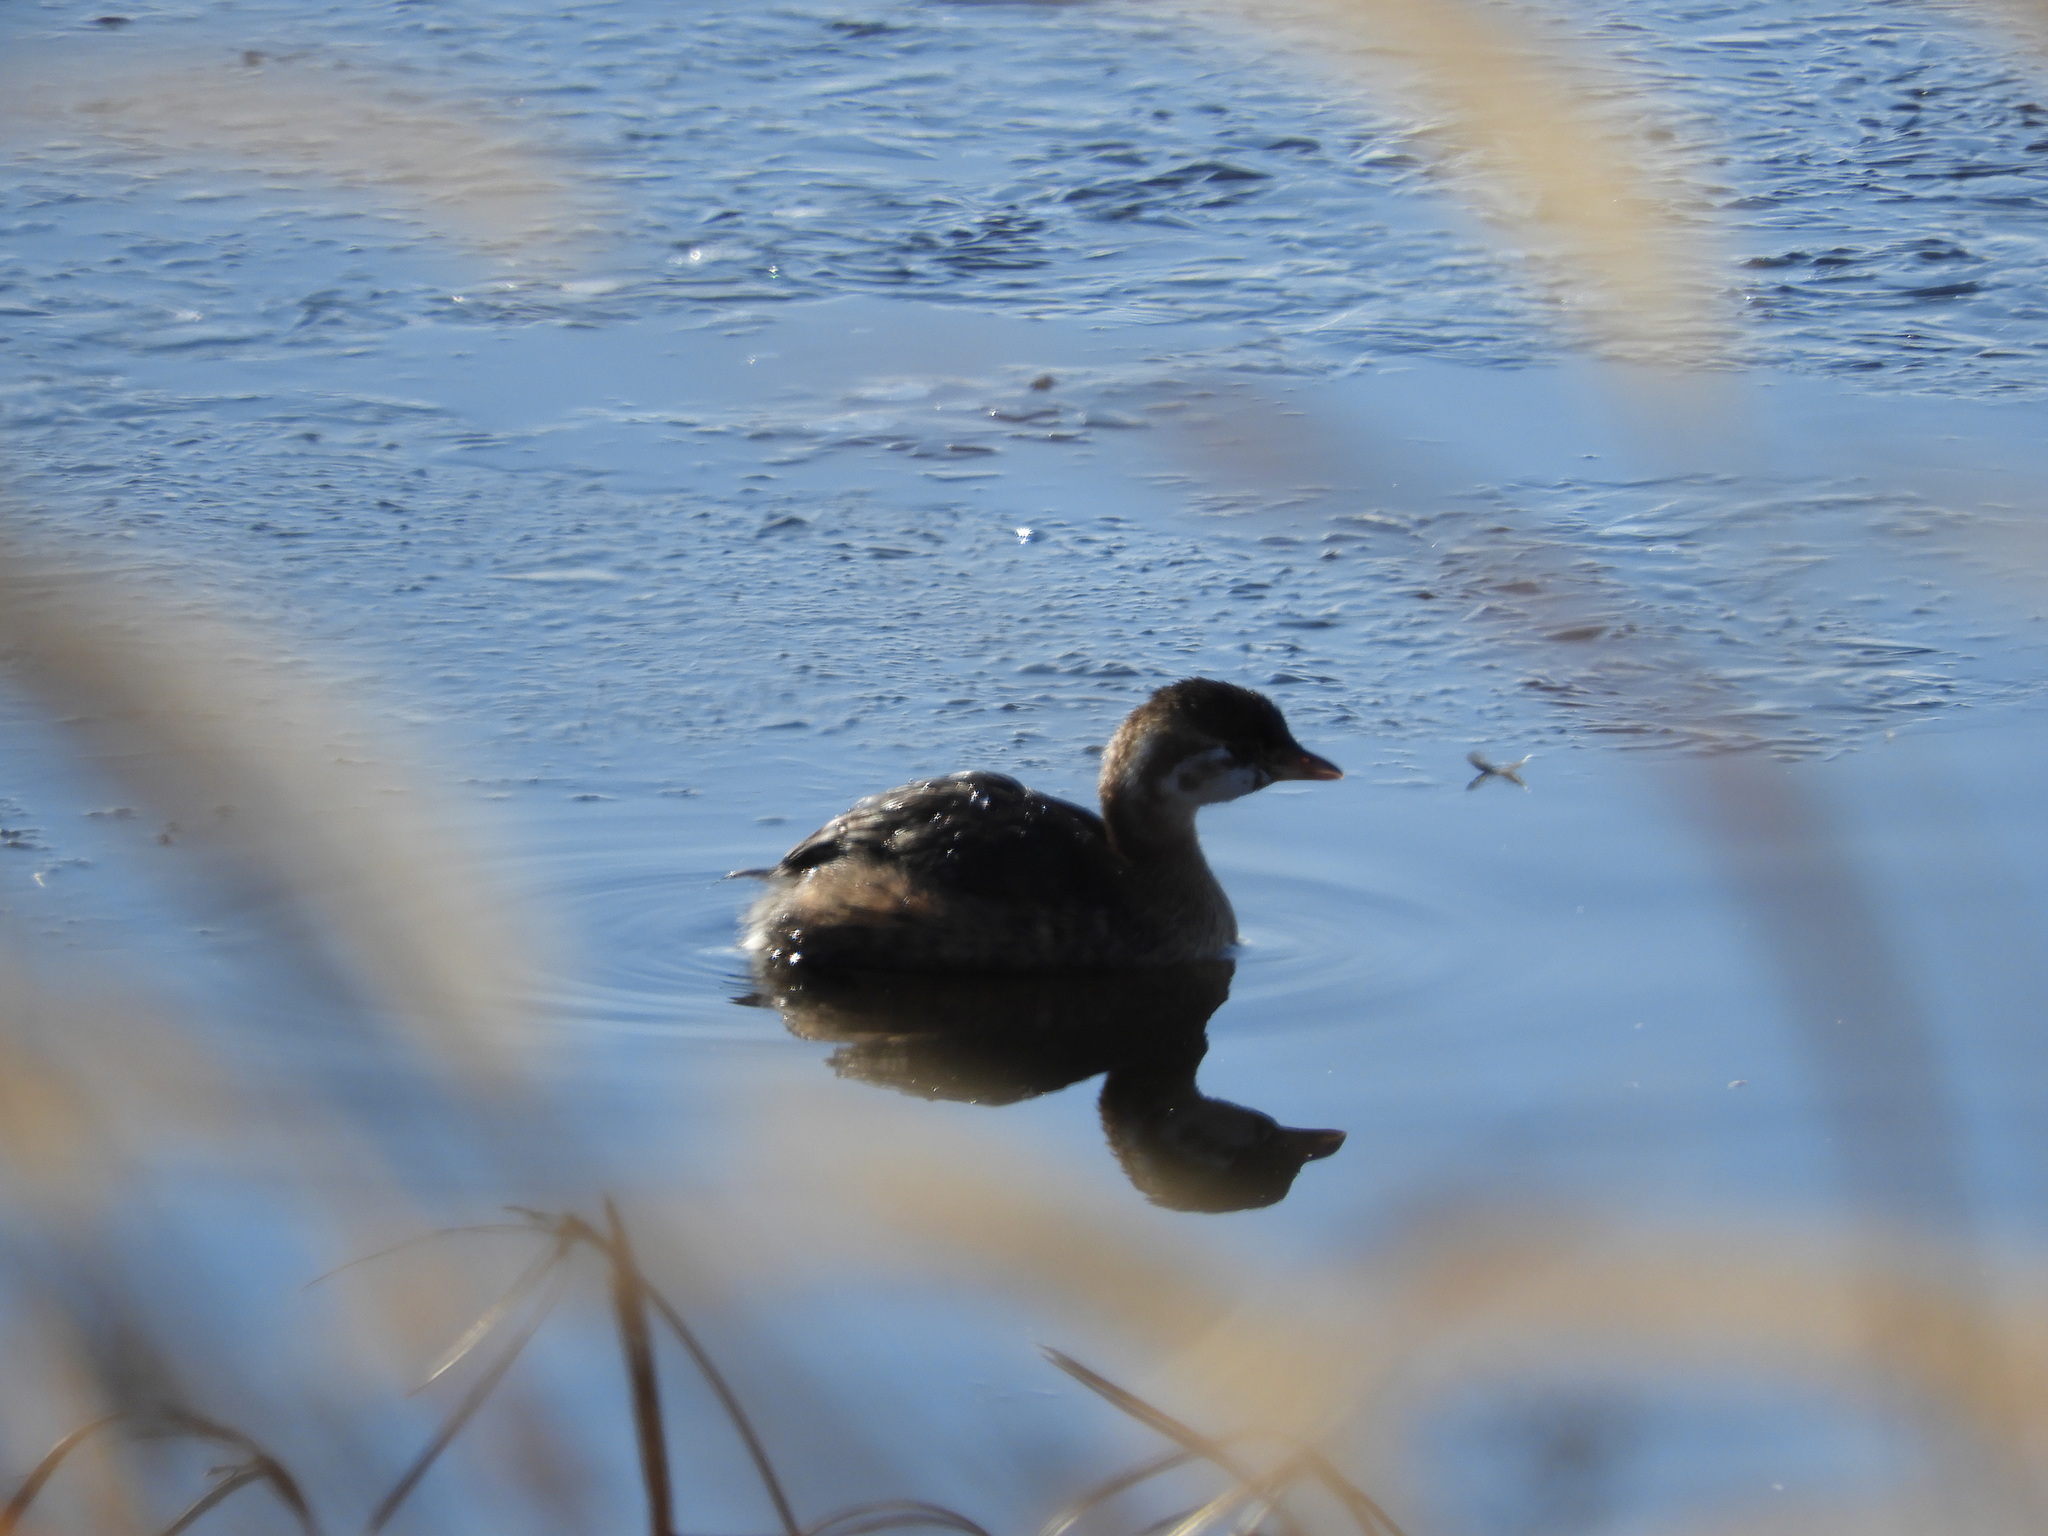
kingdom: Animalia
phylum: Chordata
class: Aves
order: Podicipediformes
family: Podicipedidae
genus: Podilymbus
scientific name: Podilymbus podiceps
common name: Pied-billed grebe
